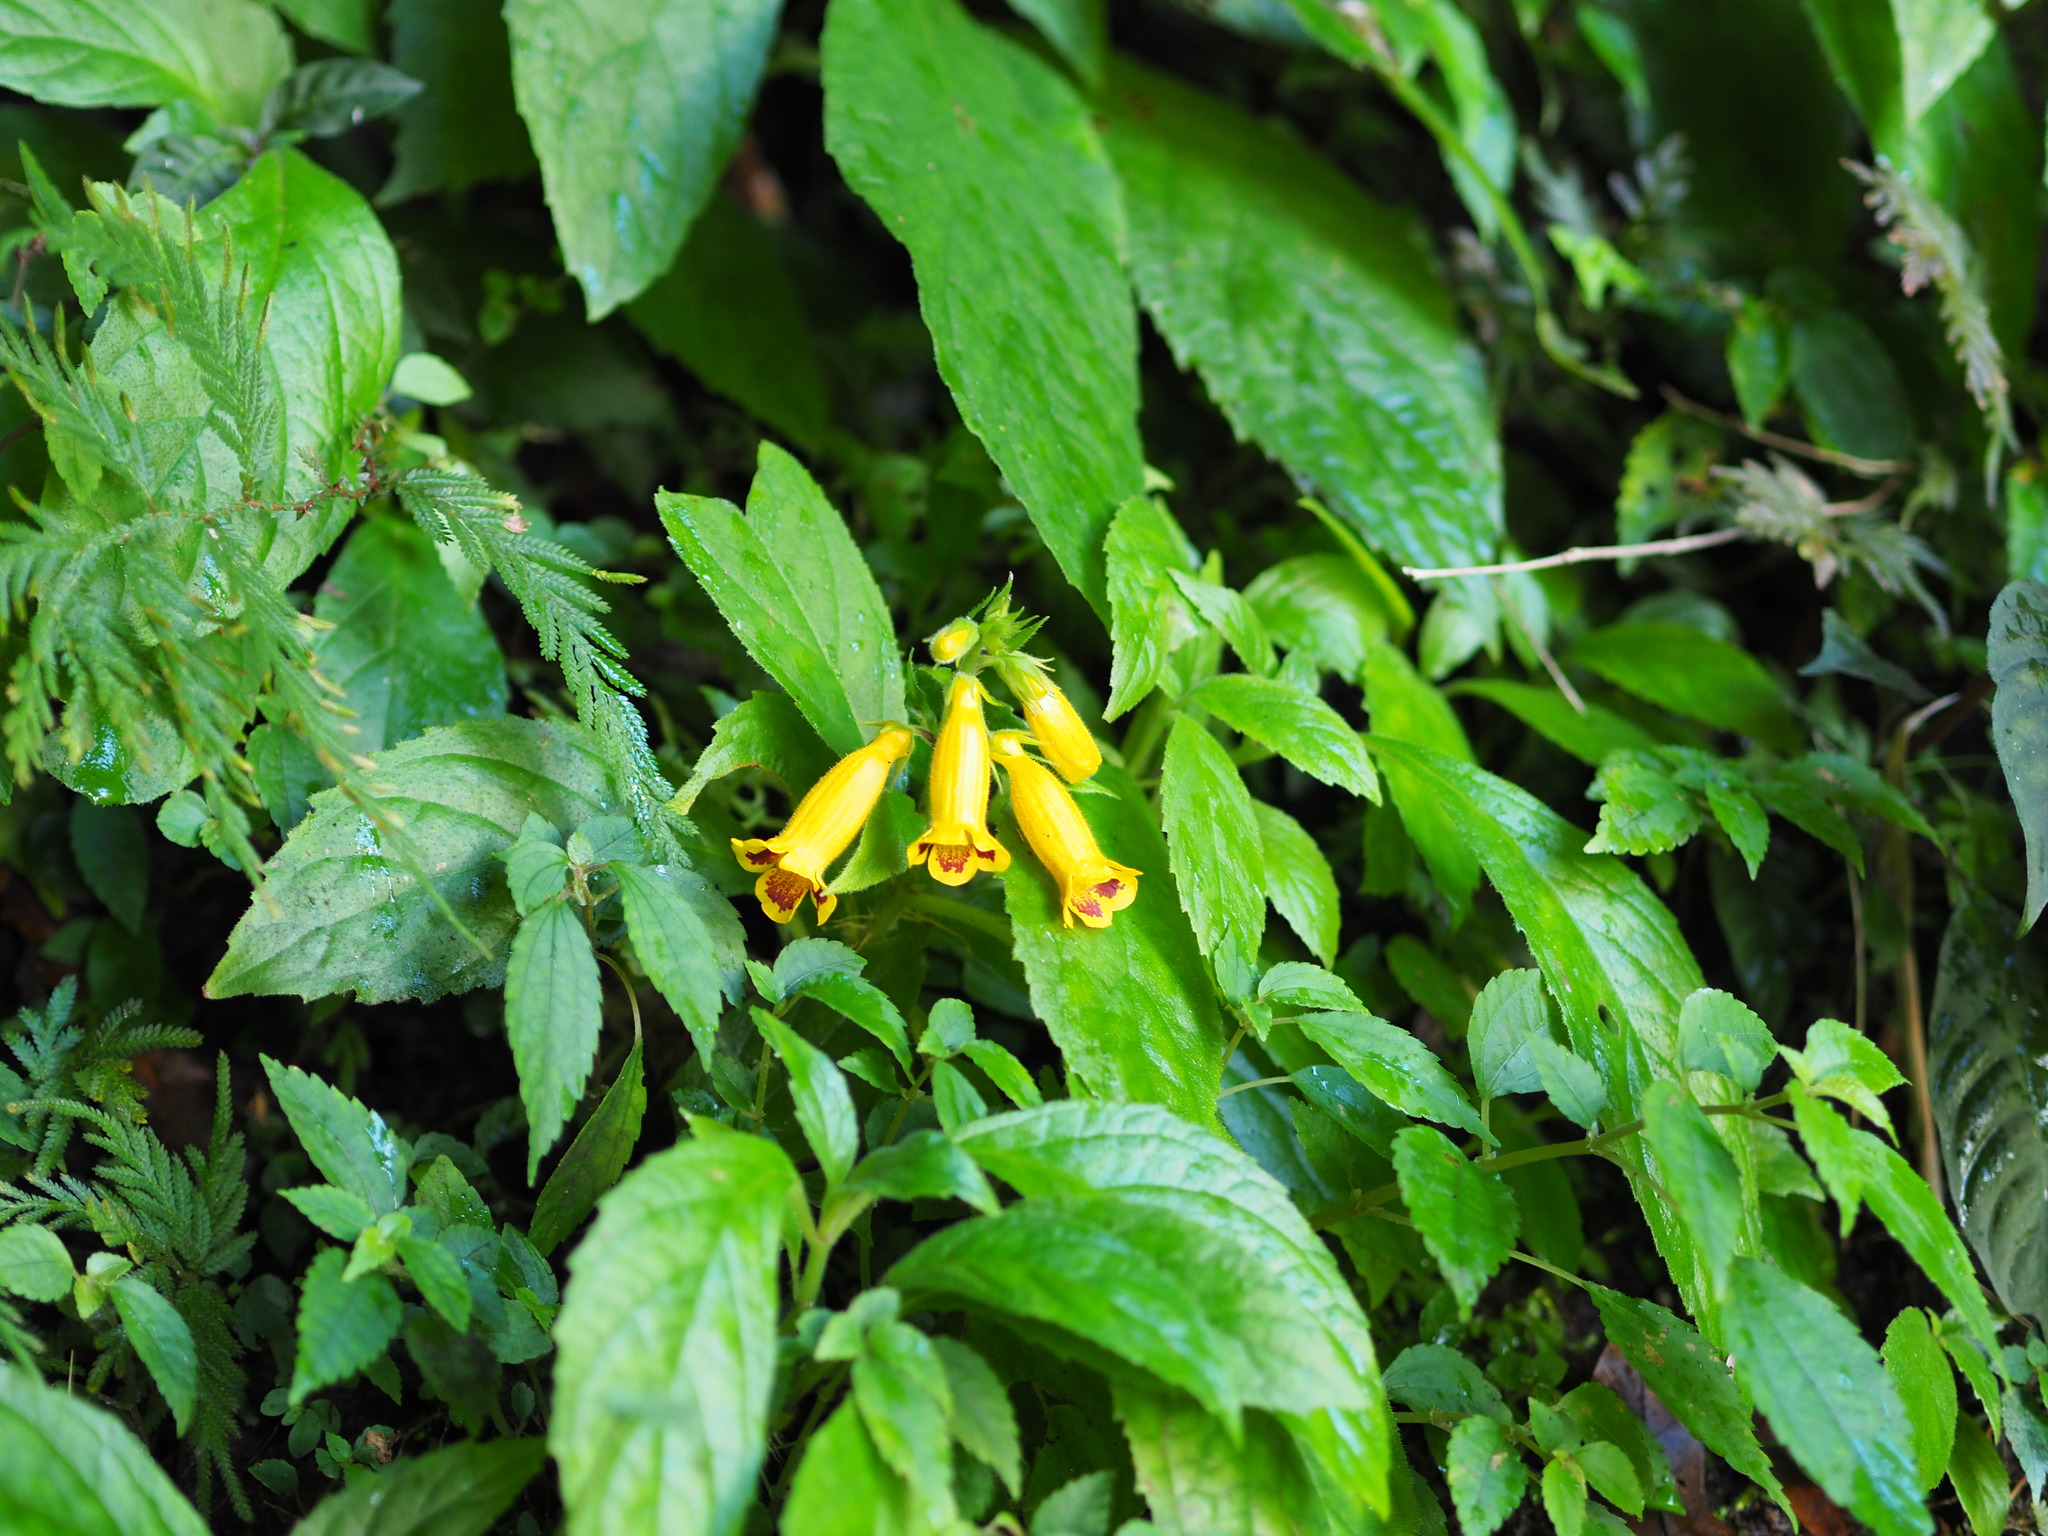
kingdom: Plantae
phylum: Tracheophyta
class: Magnoliopsida
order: Lamiales
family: Gesneriaceae
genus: Titanotrichum
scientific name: Titanotrichum oldhamii
